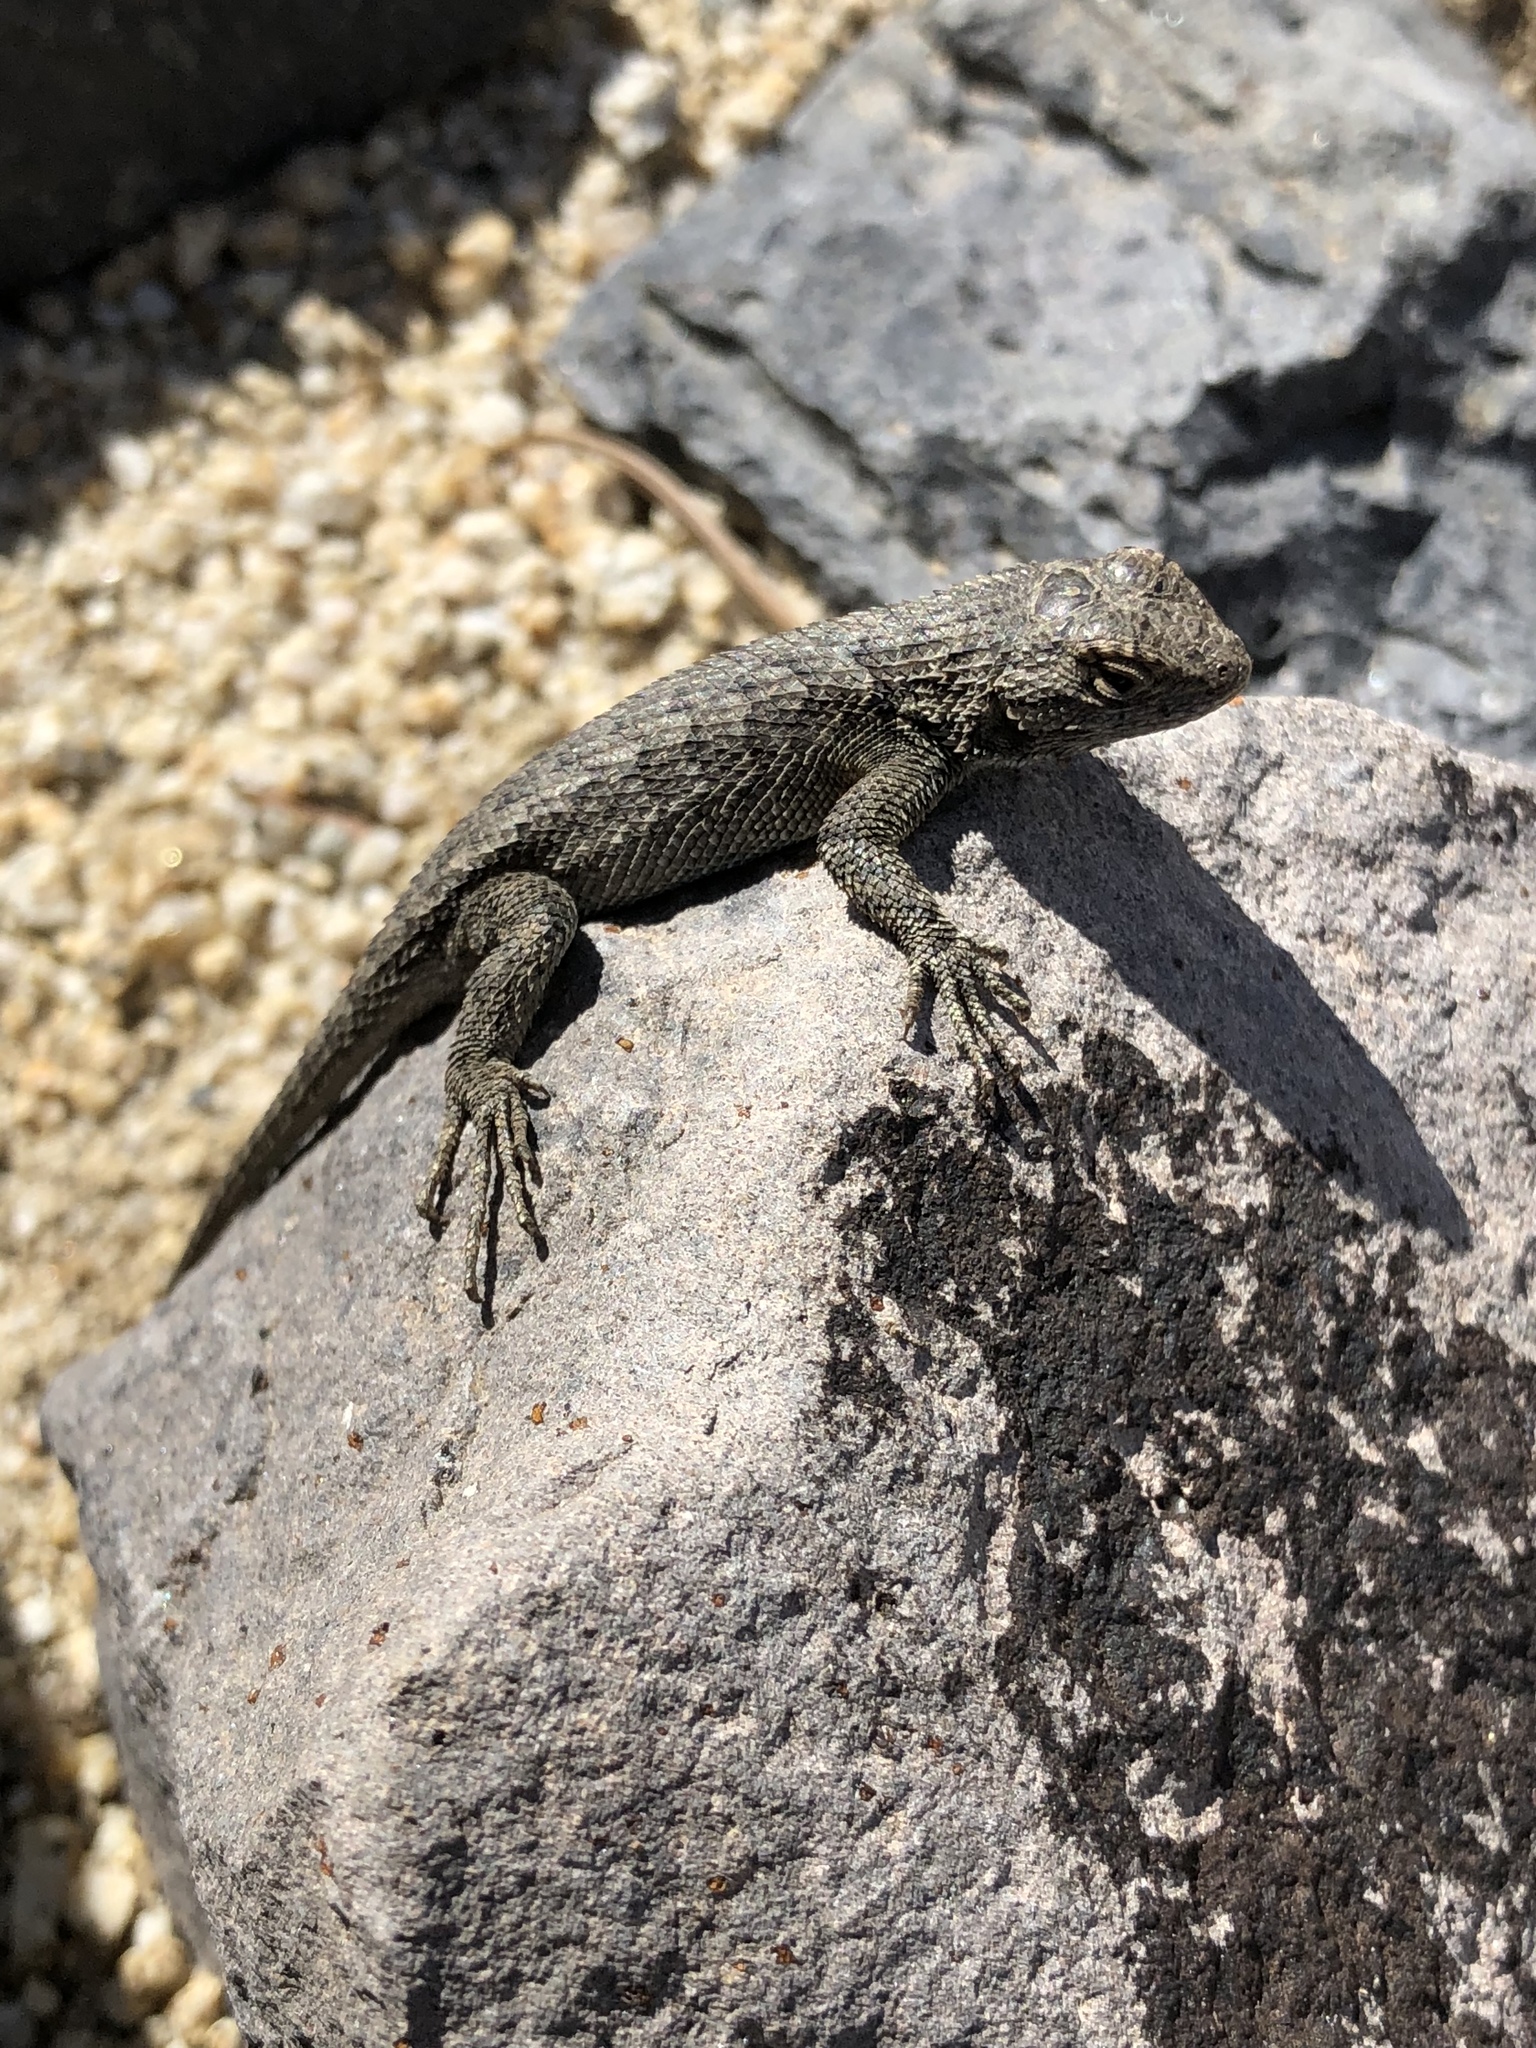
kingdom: Animalia
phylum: Chordata
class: Squamata
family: Phrynosomatidae
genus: Sceloporus
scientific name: Sceloporus occidentalis
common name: Western fence lizard
